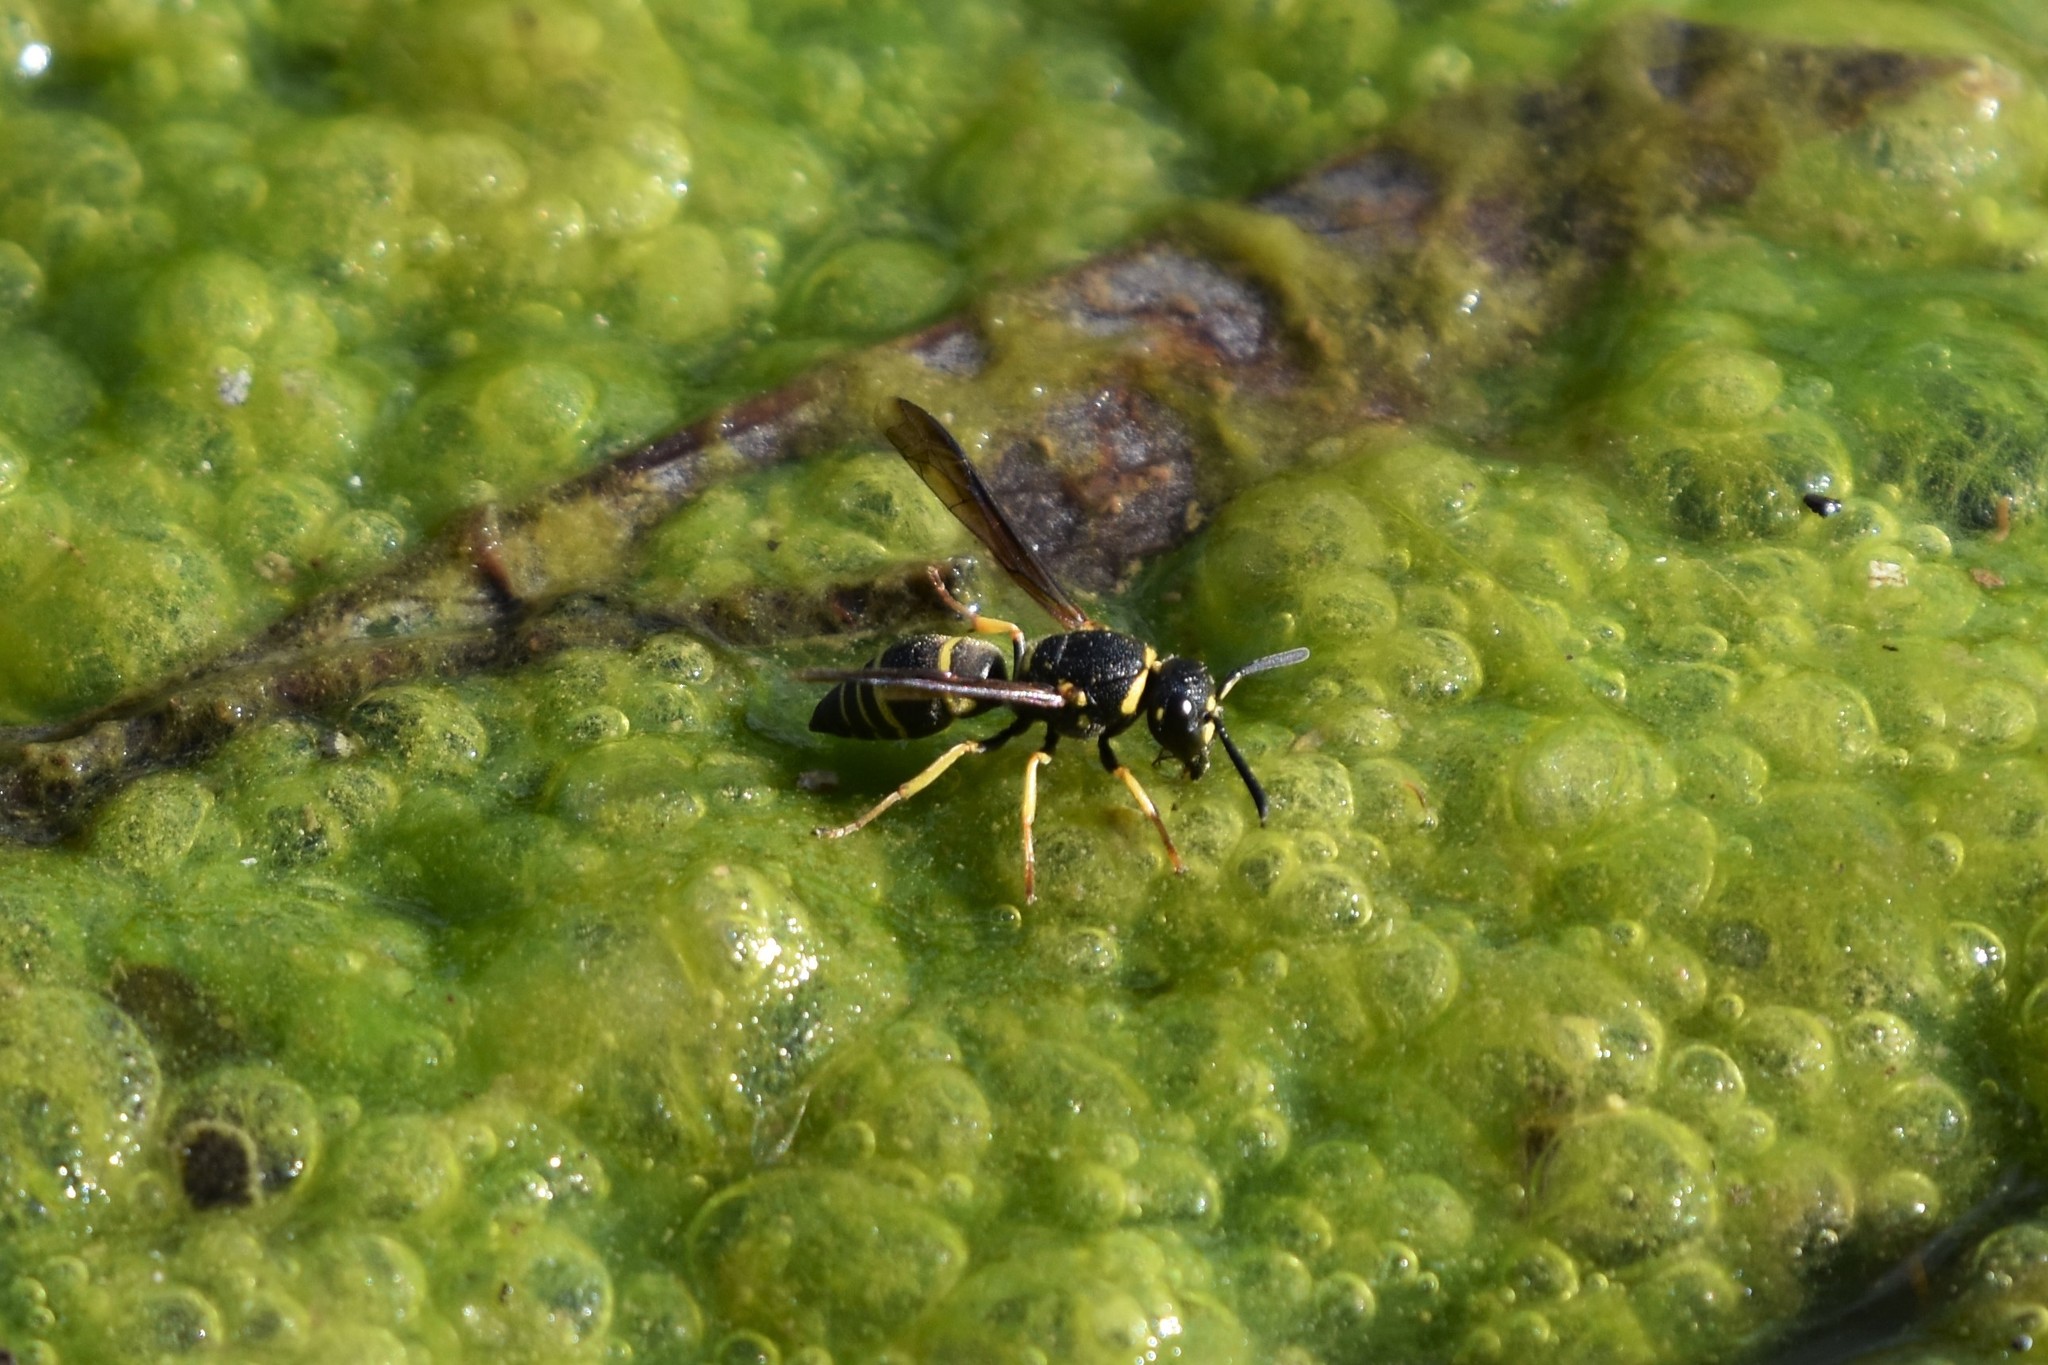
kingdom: Animalia
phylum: Arthropoda
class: Insecta
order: Hymenoptera
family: Eumenidae
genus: Euodynerus
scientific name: Euodynerus foraminatus
